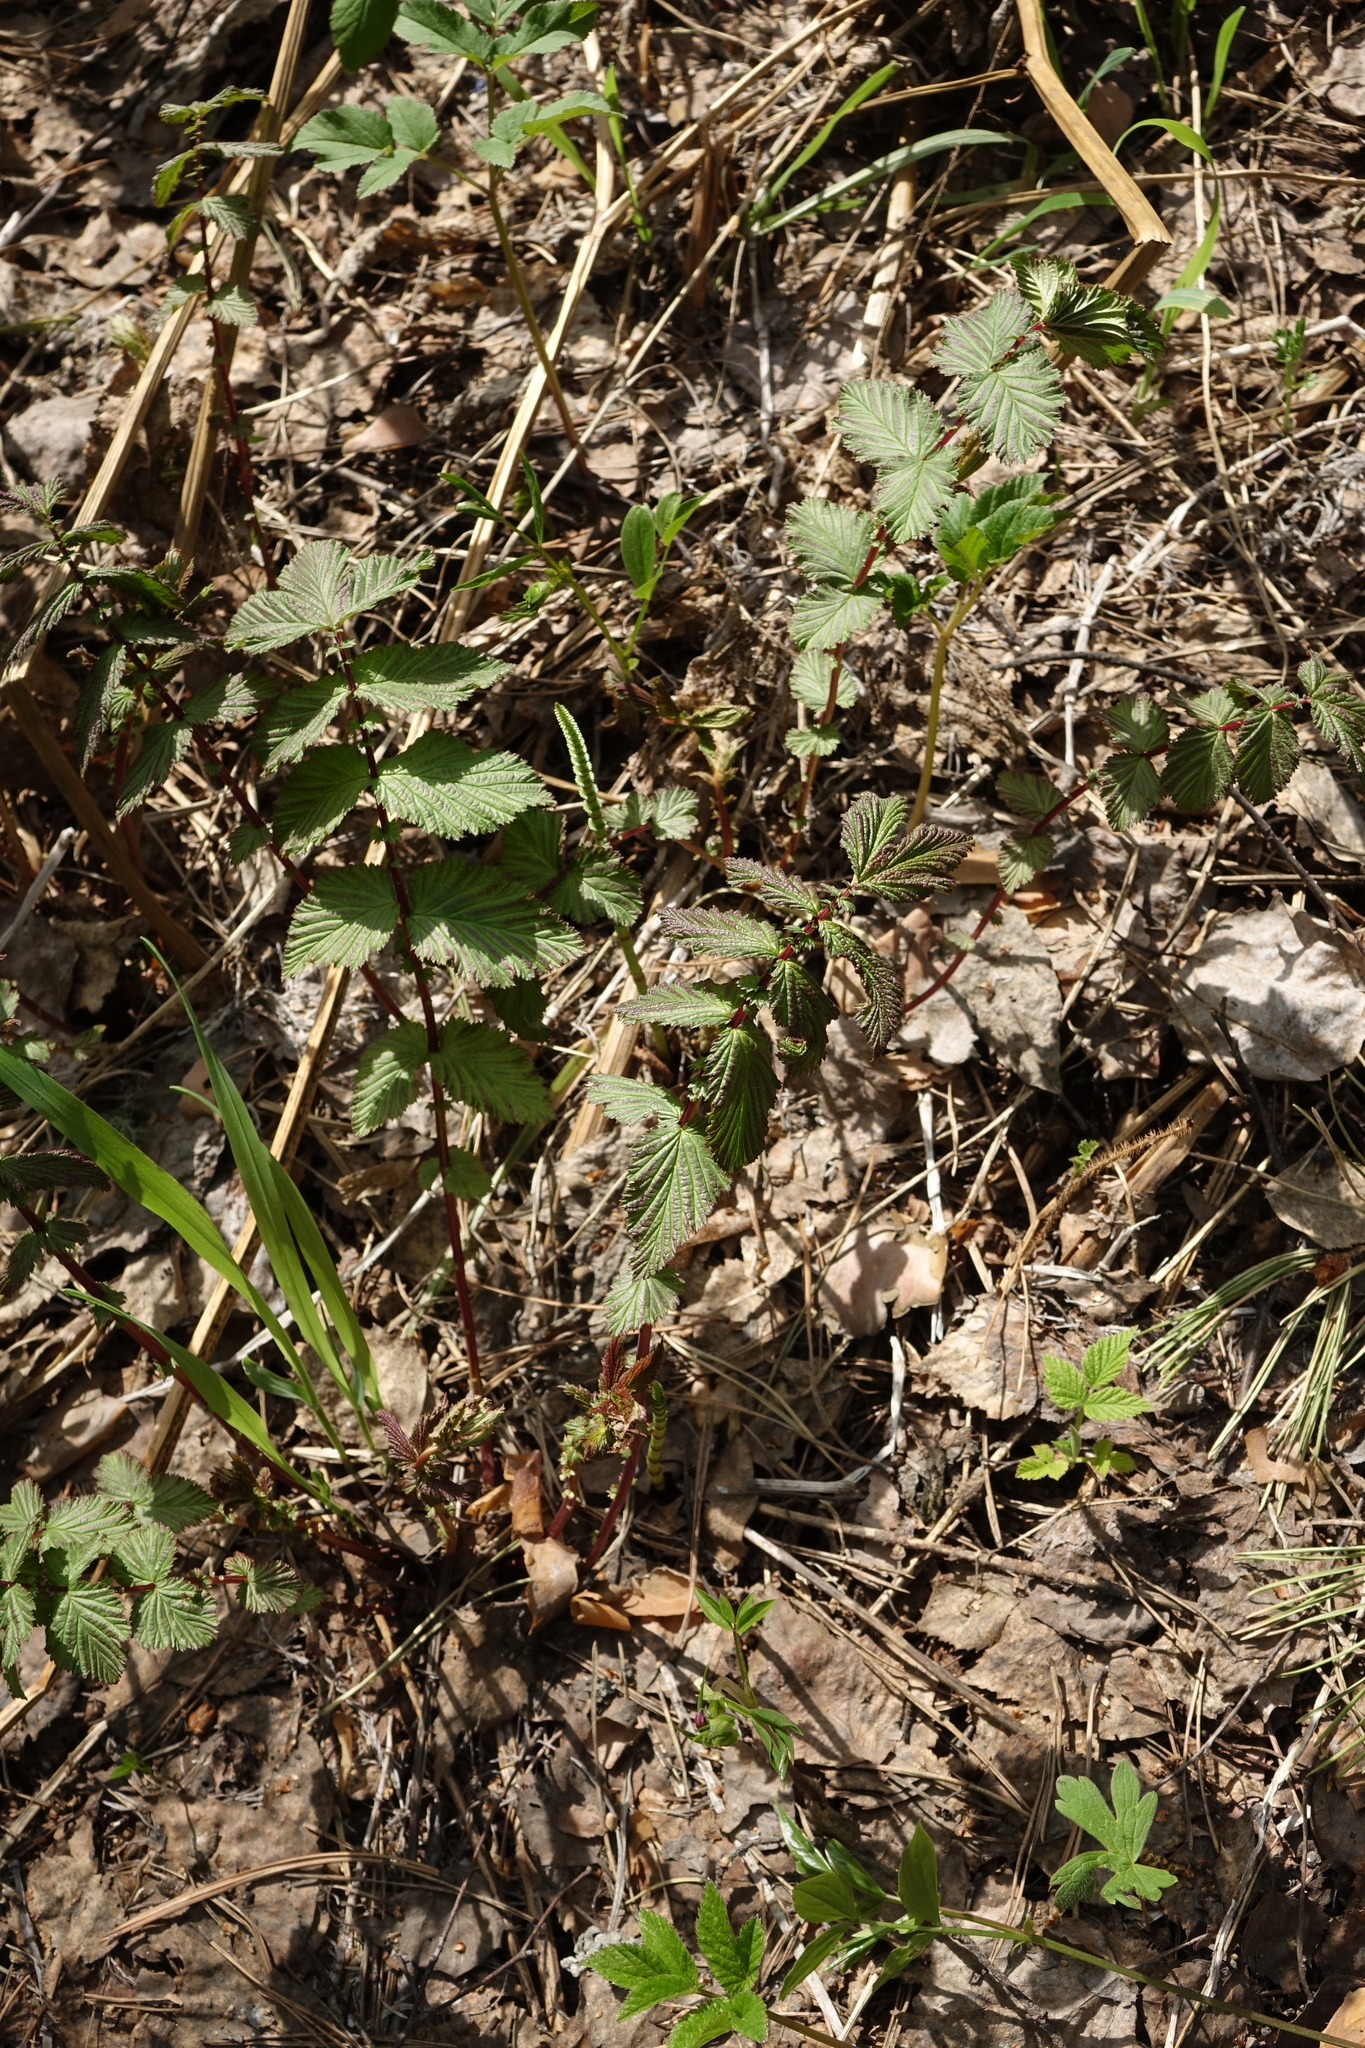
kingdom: Plantae
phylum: Tracheophyta
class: Magnoliopsida
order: Rosales
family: Rosaceae
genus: Filipendula
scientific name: Filipendula ulmaria
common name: Meadowsweet
